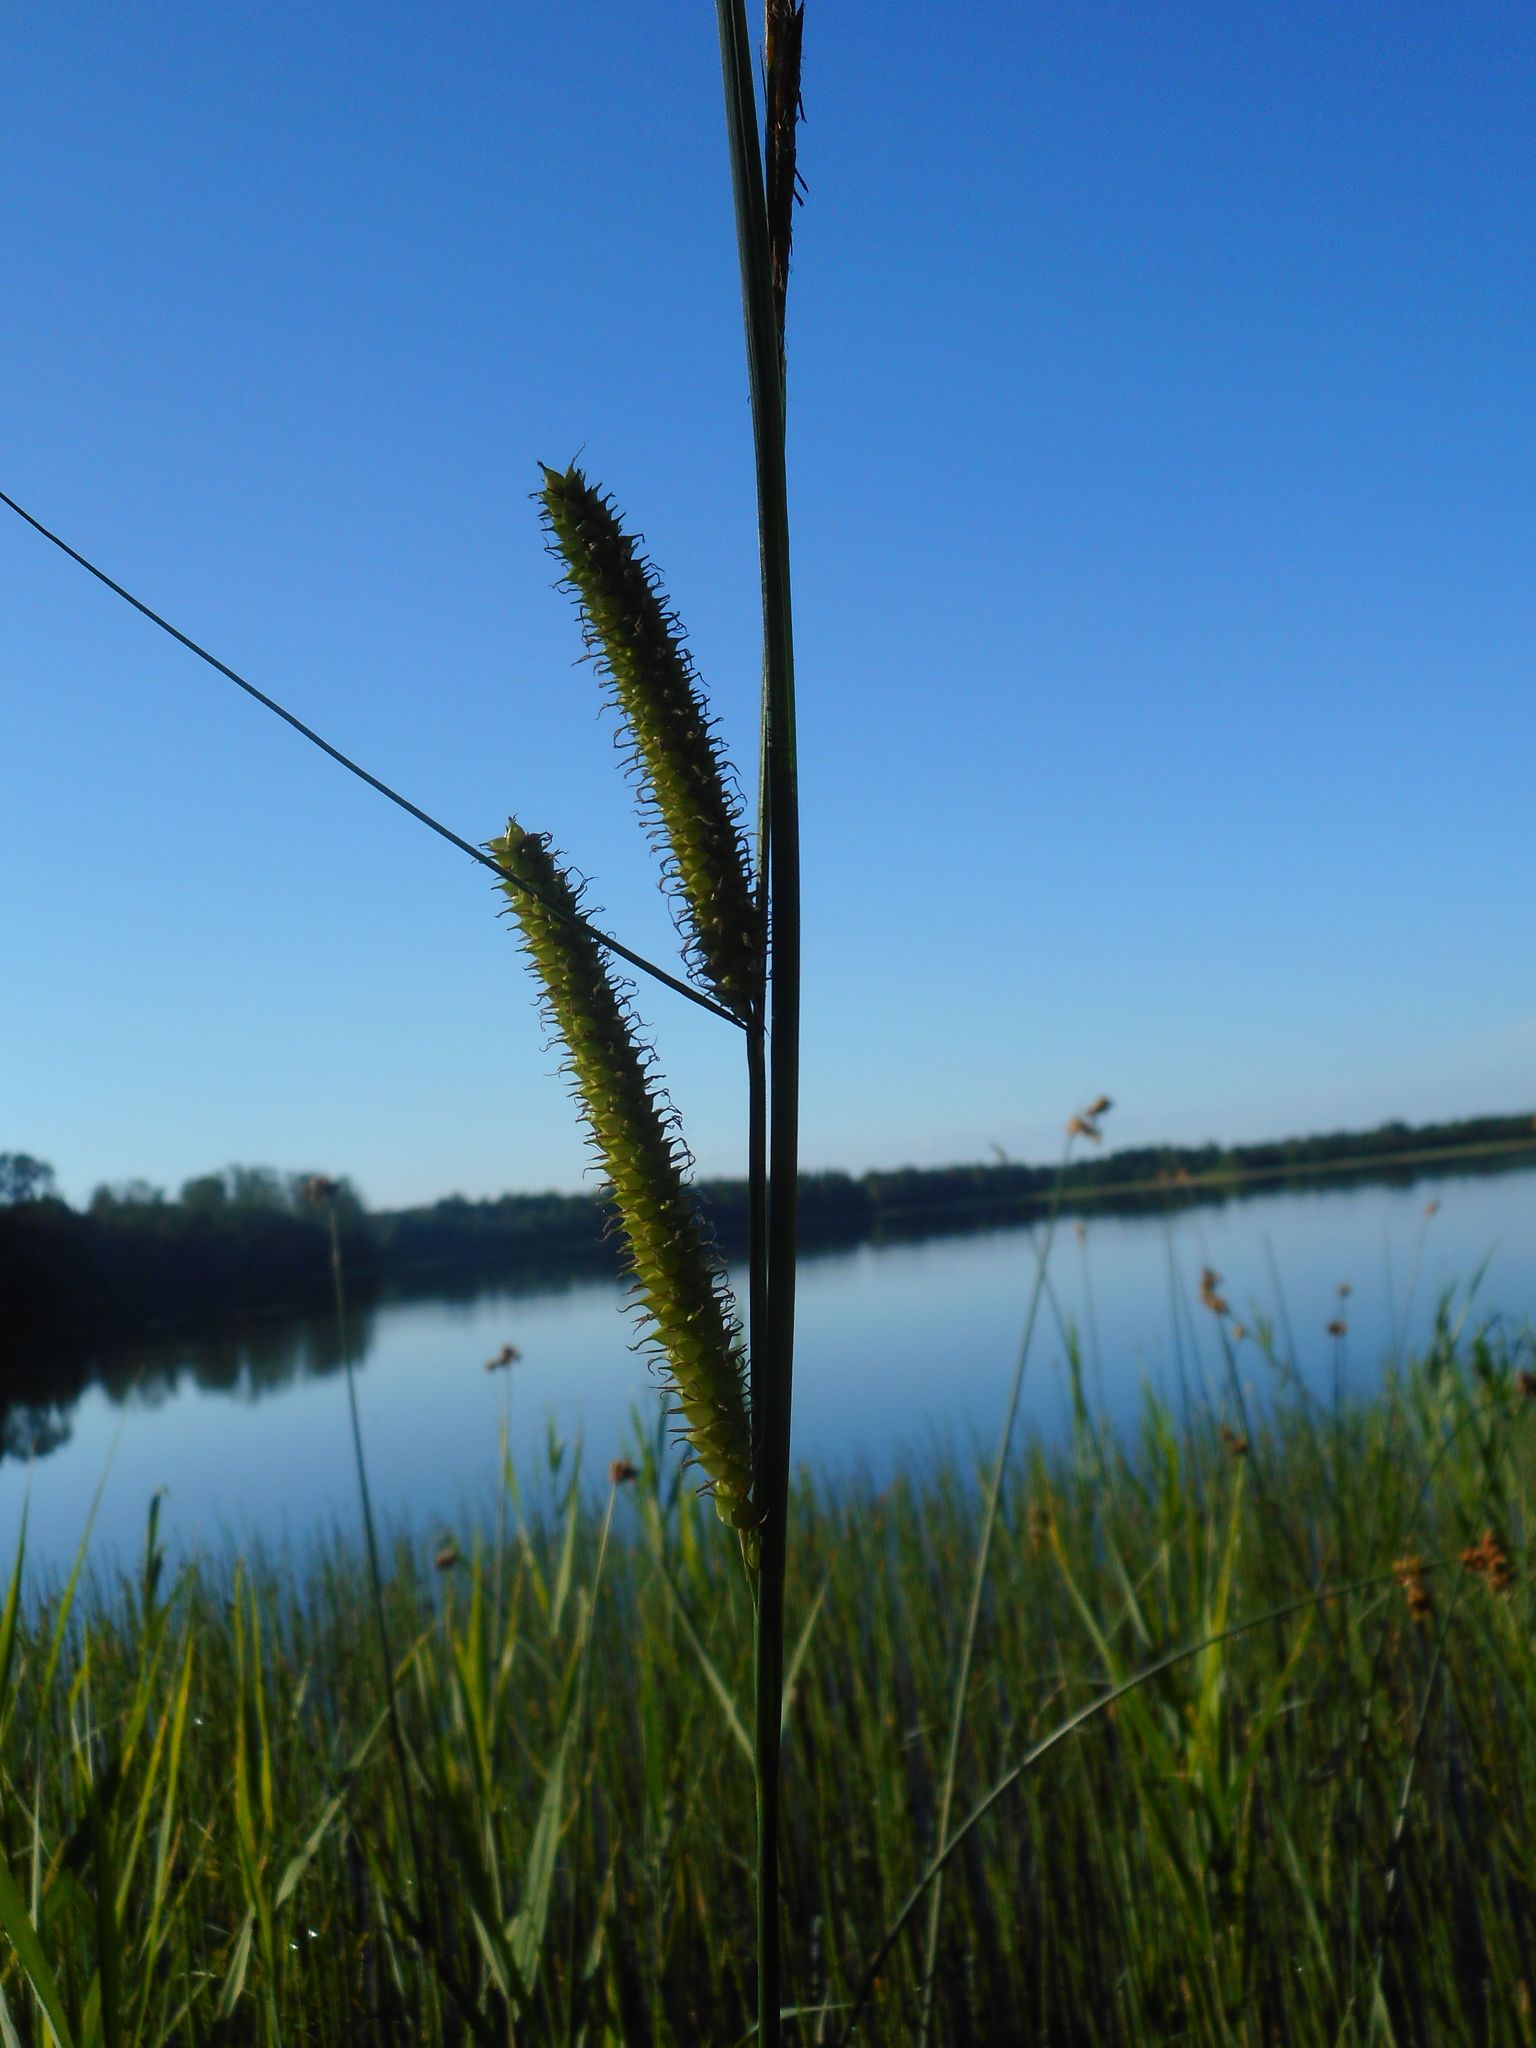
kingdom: Plantae
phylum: Tracheophyta
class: Liliopsida
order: Poales
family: Cyperaceae
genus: Carex
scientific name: Carex rostrata
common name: Bottle sedge
